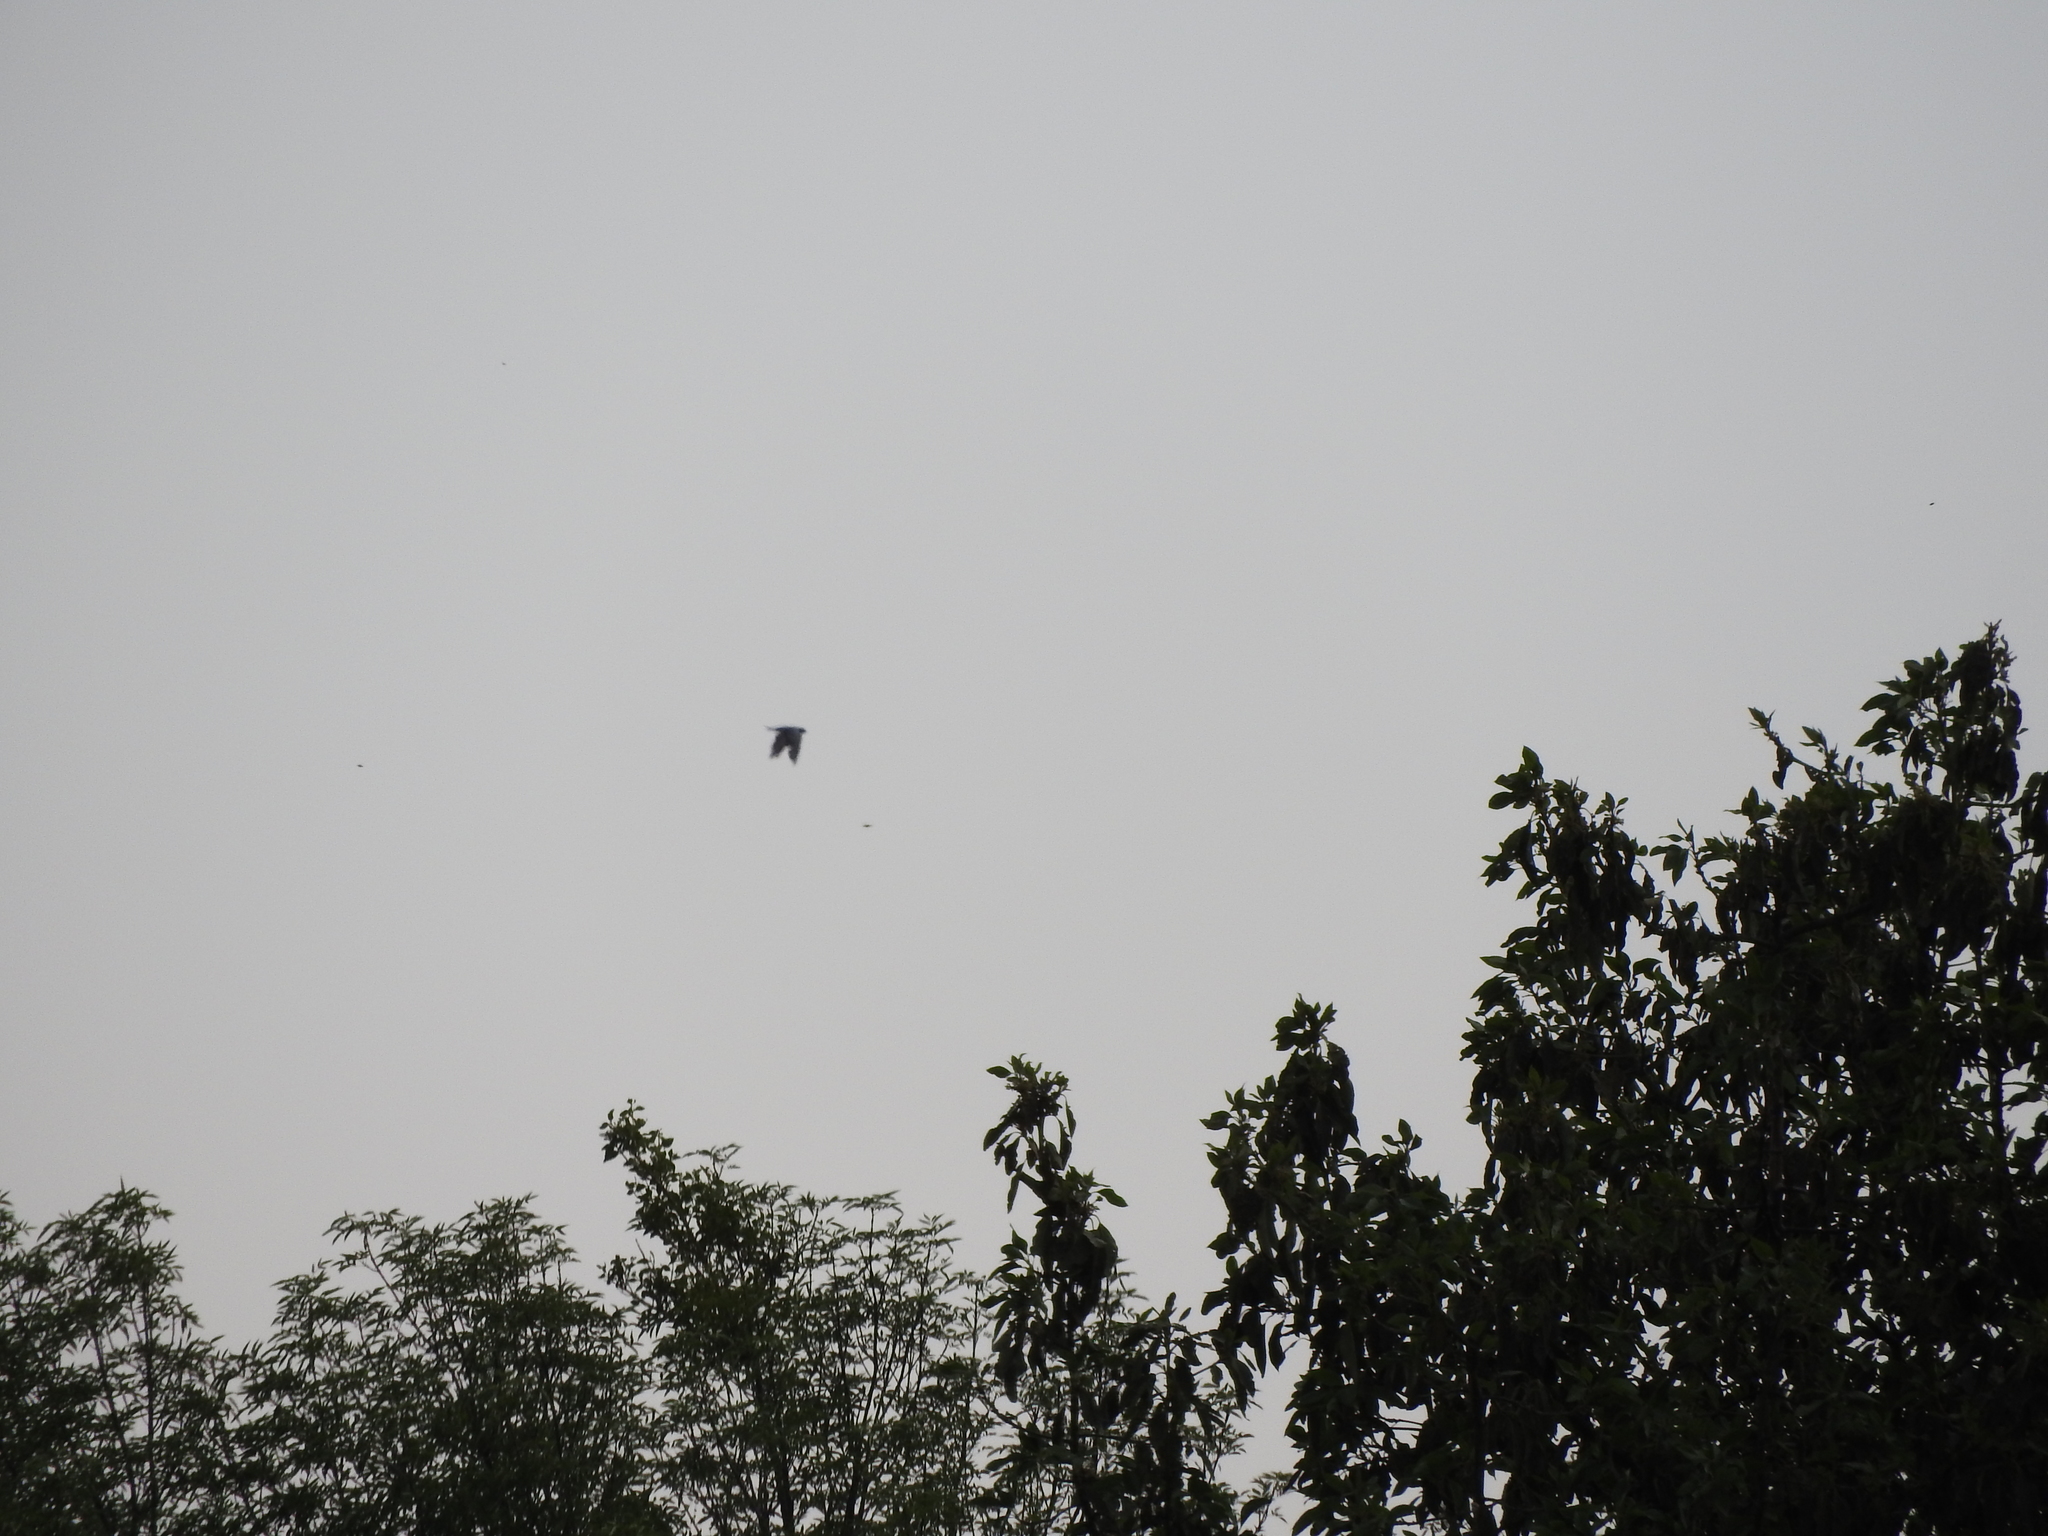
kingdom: Animalia
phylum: Chordata
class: Aves
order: Columbiformes
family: Columbidae
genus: Columba
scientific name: Columba livia
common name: Rock pigeon
